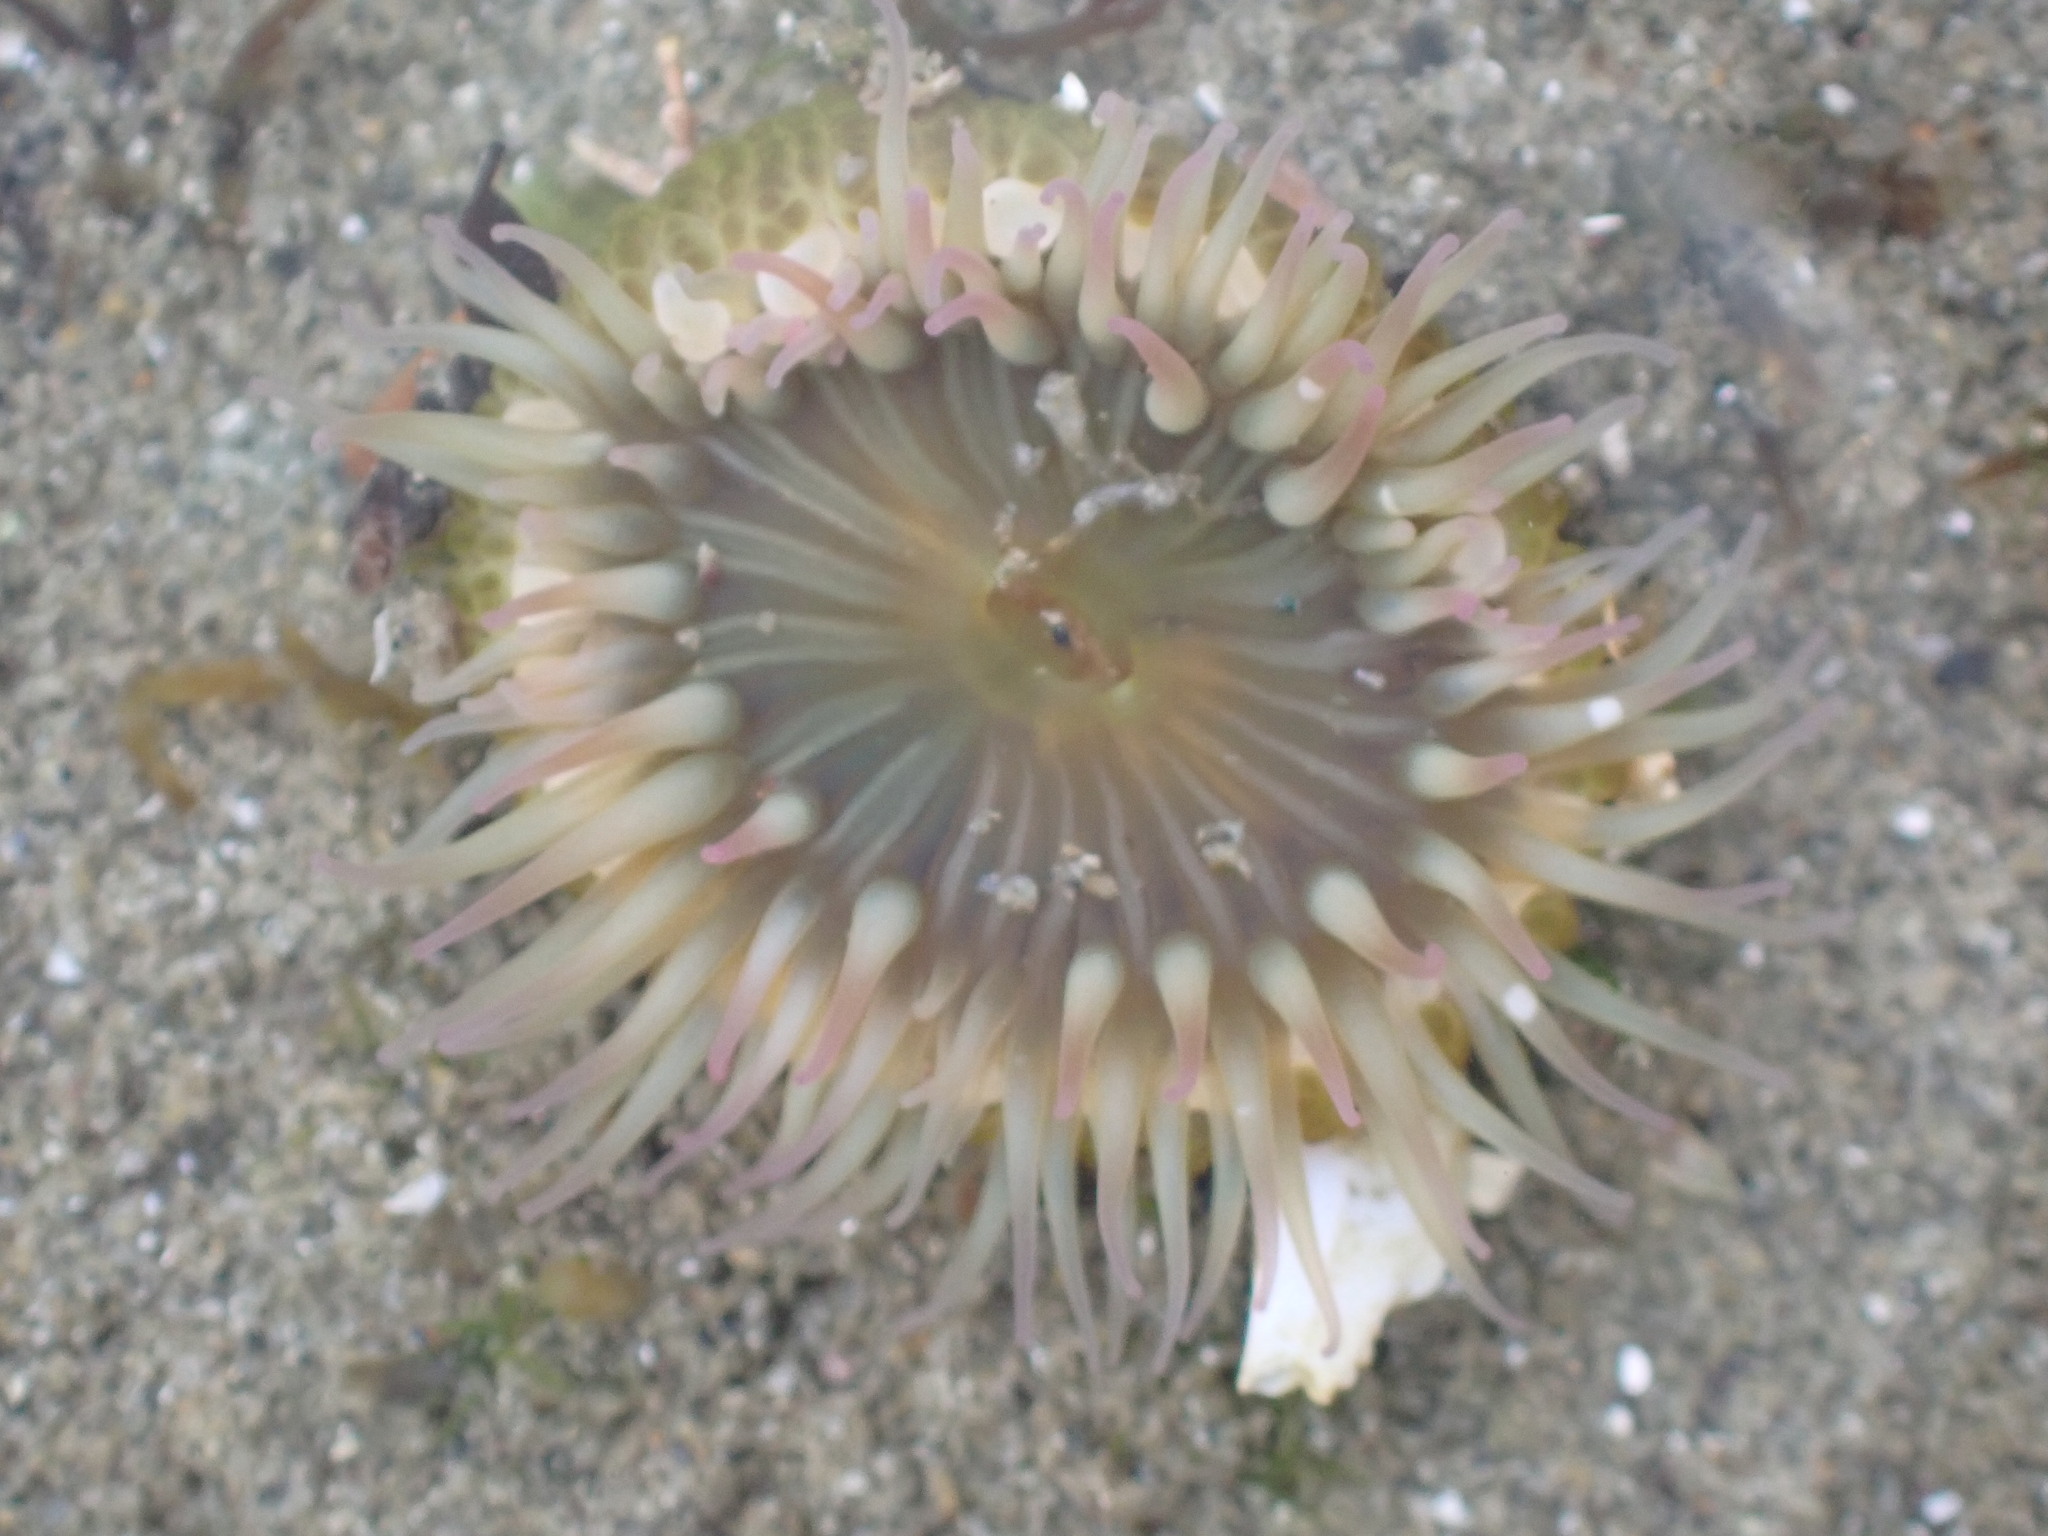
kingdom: Animalia
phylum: Cnidaria
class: Anthozoa
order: Actiniaria
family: Actiniidae
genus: Anthopleura
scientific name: Anthopleura elegantissima
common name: Clonal anemone
